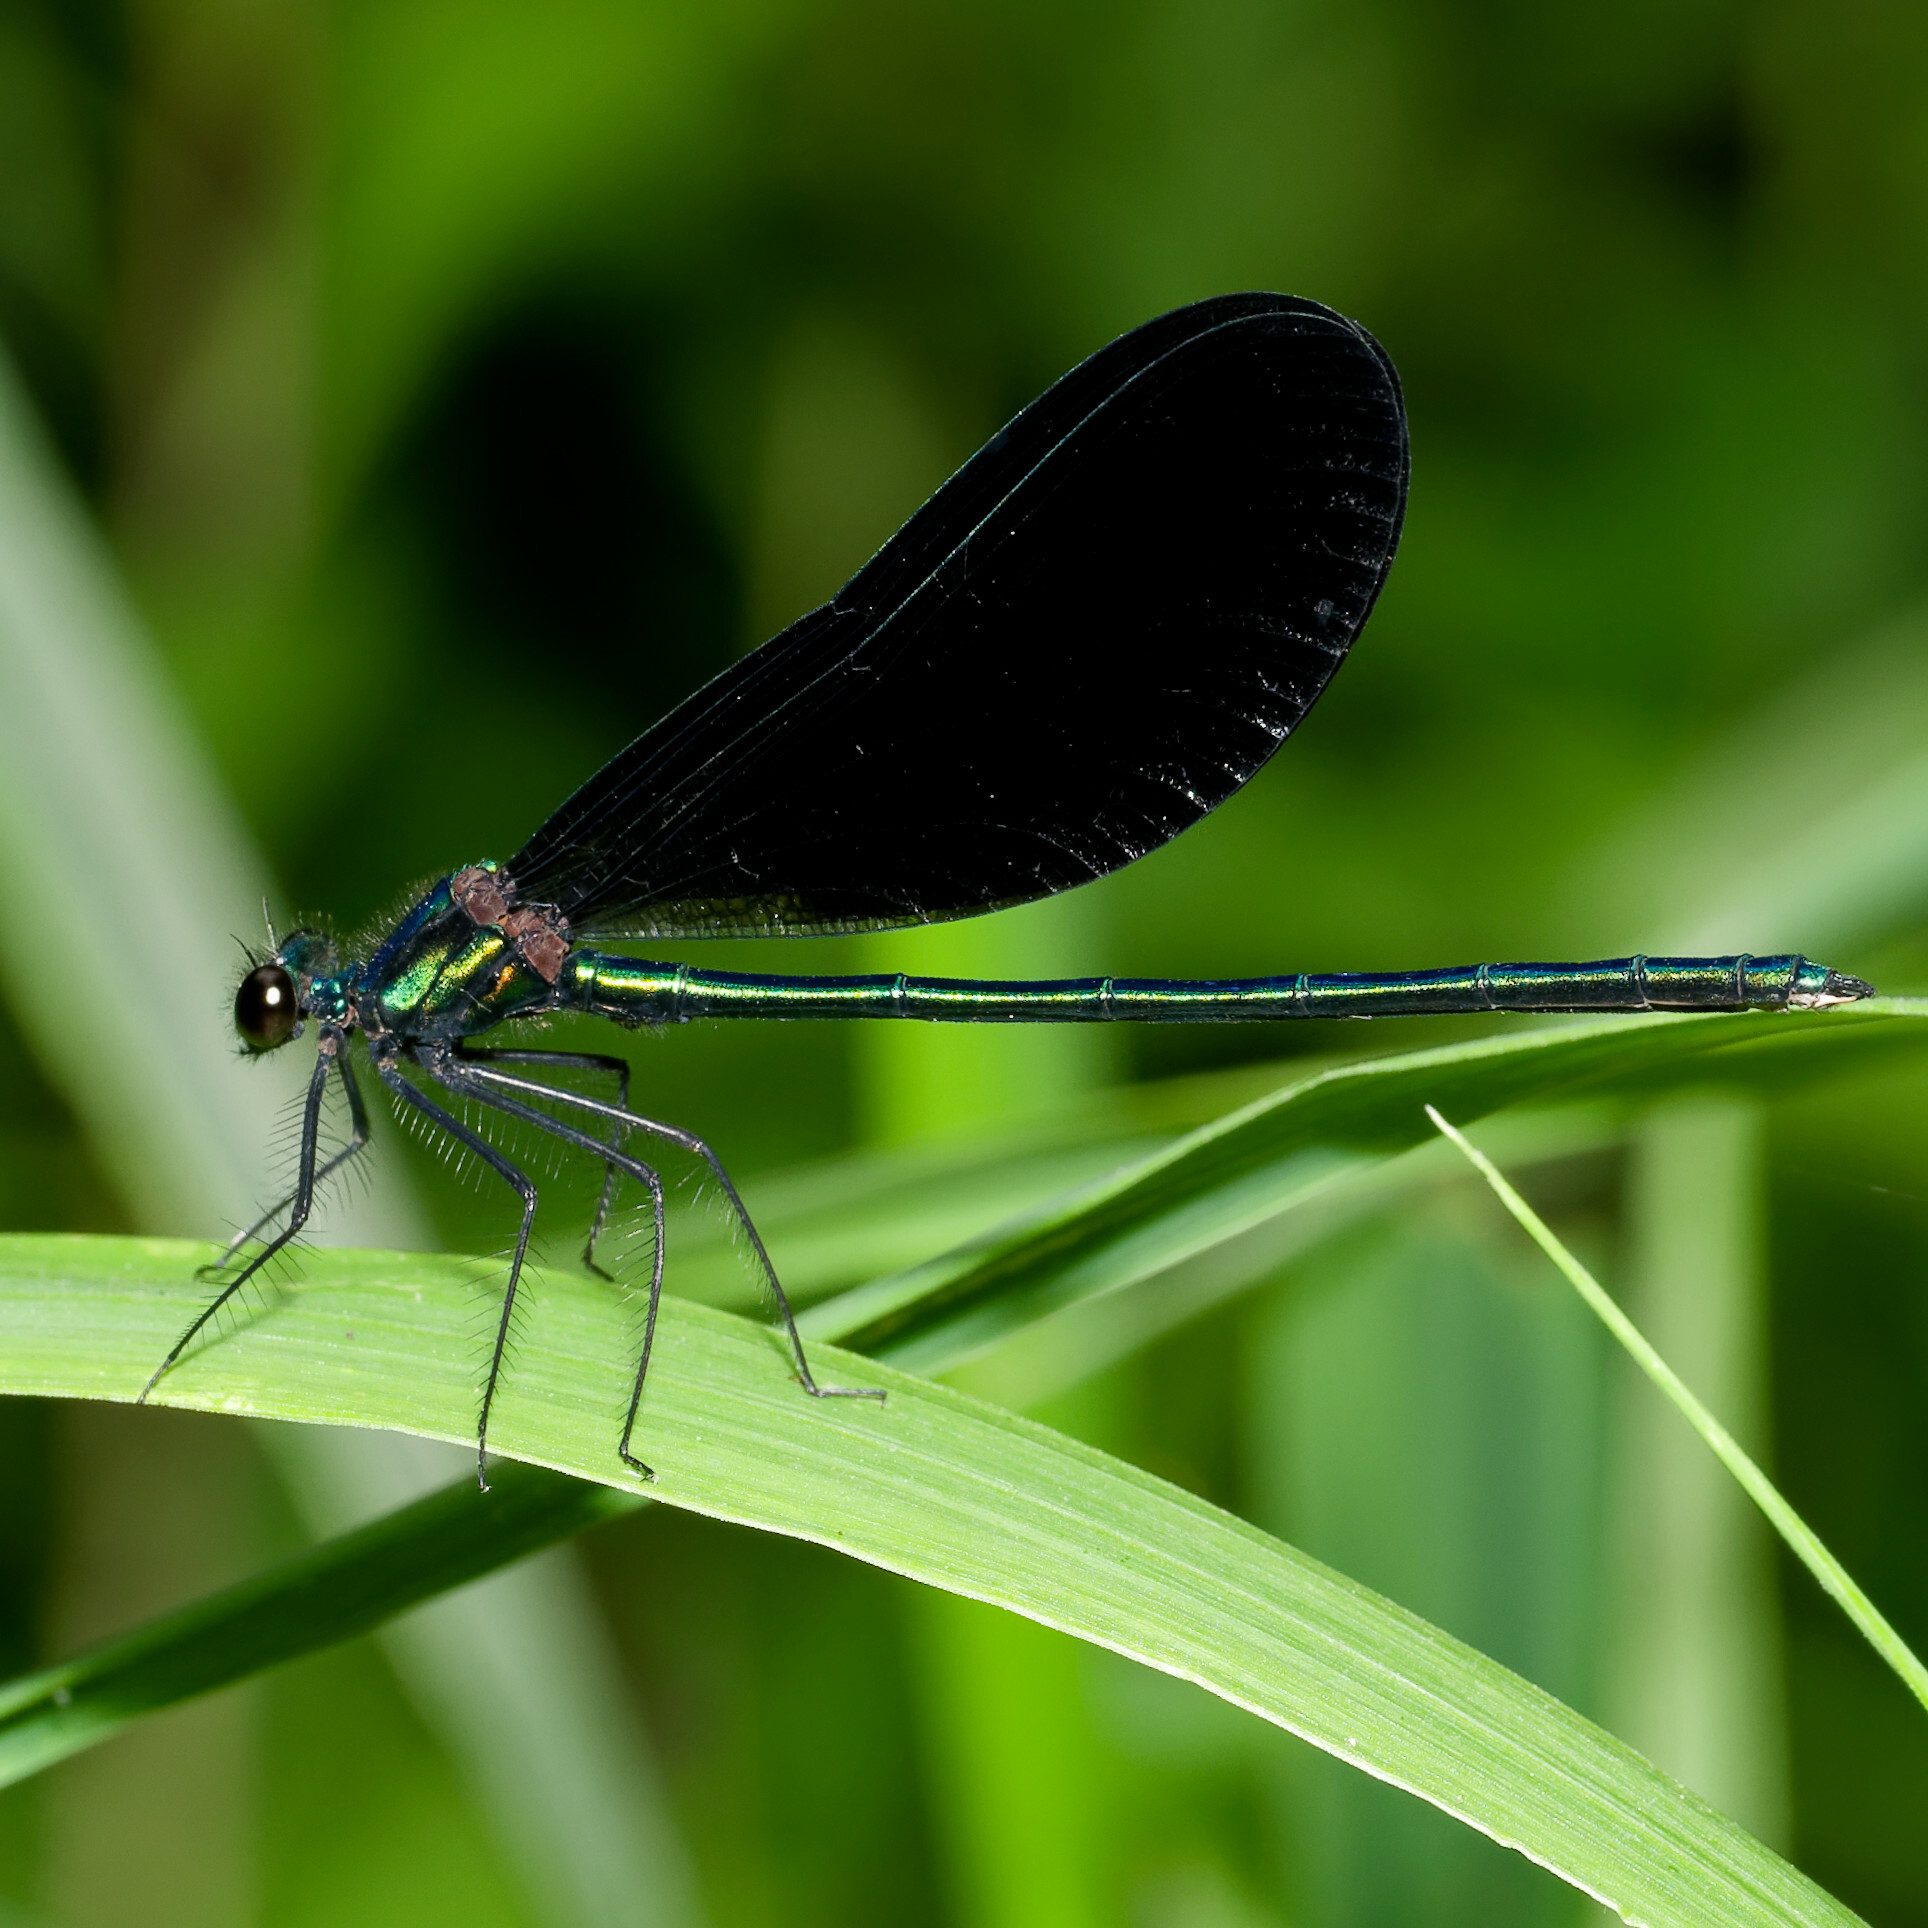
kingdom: Animalia
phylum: Arthropoda
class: Insecta
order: Odonata
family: Calopterygidae
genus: Calopteryx
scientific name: Calopteryx maculata
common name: Ebony jewelwing
